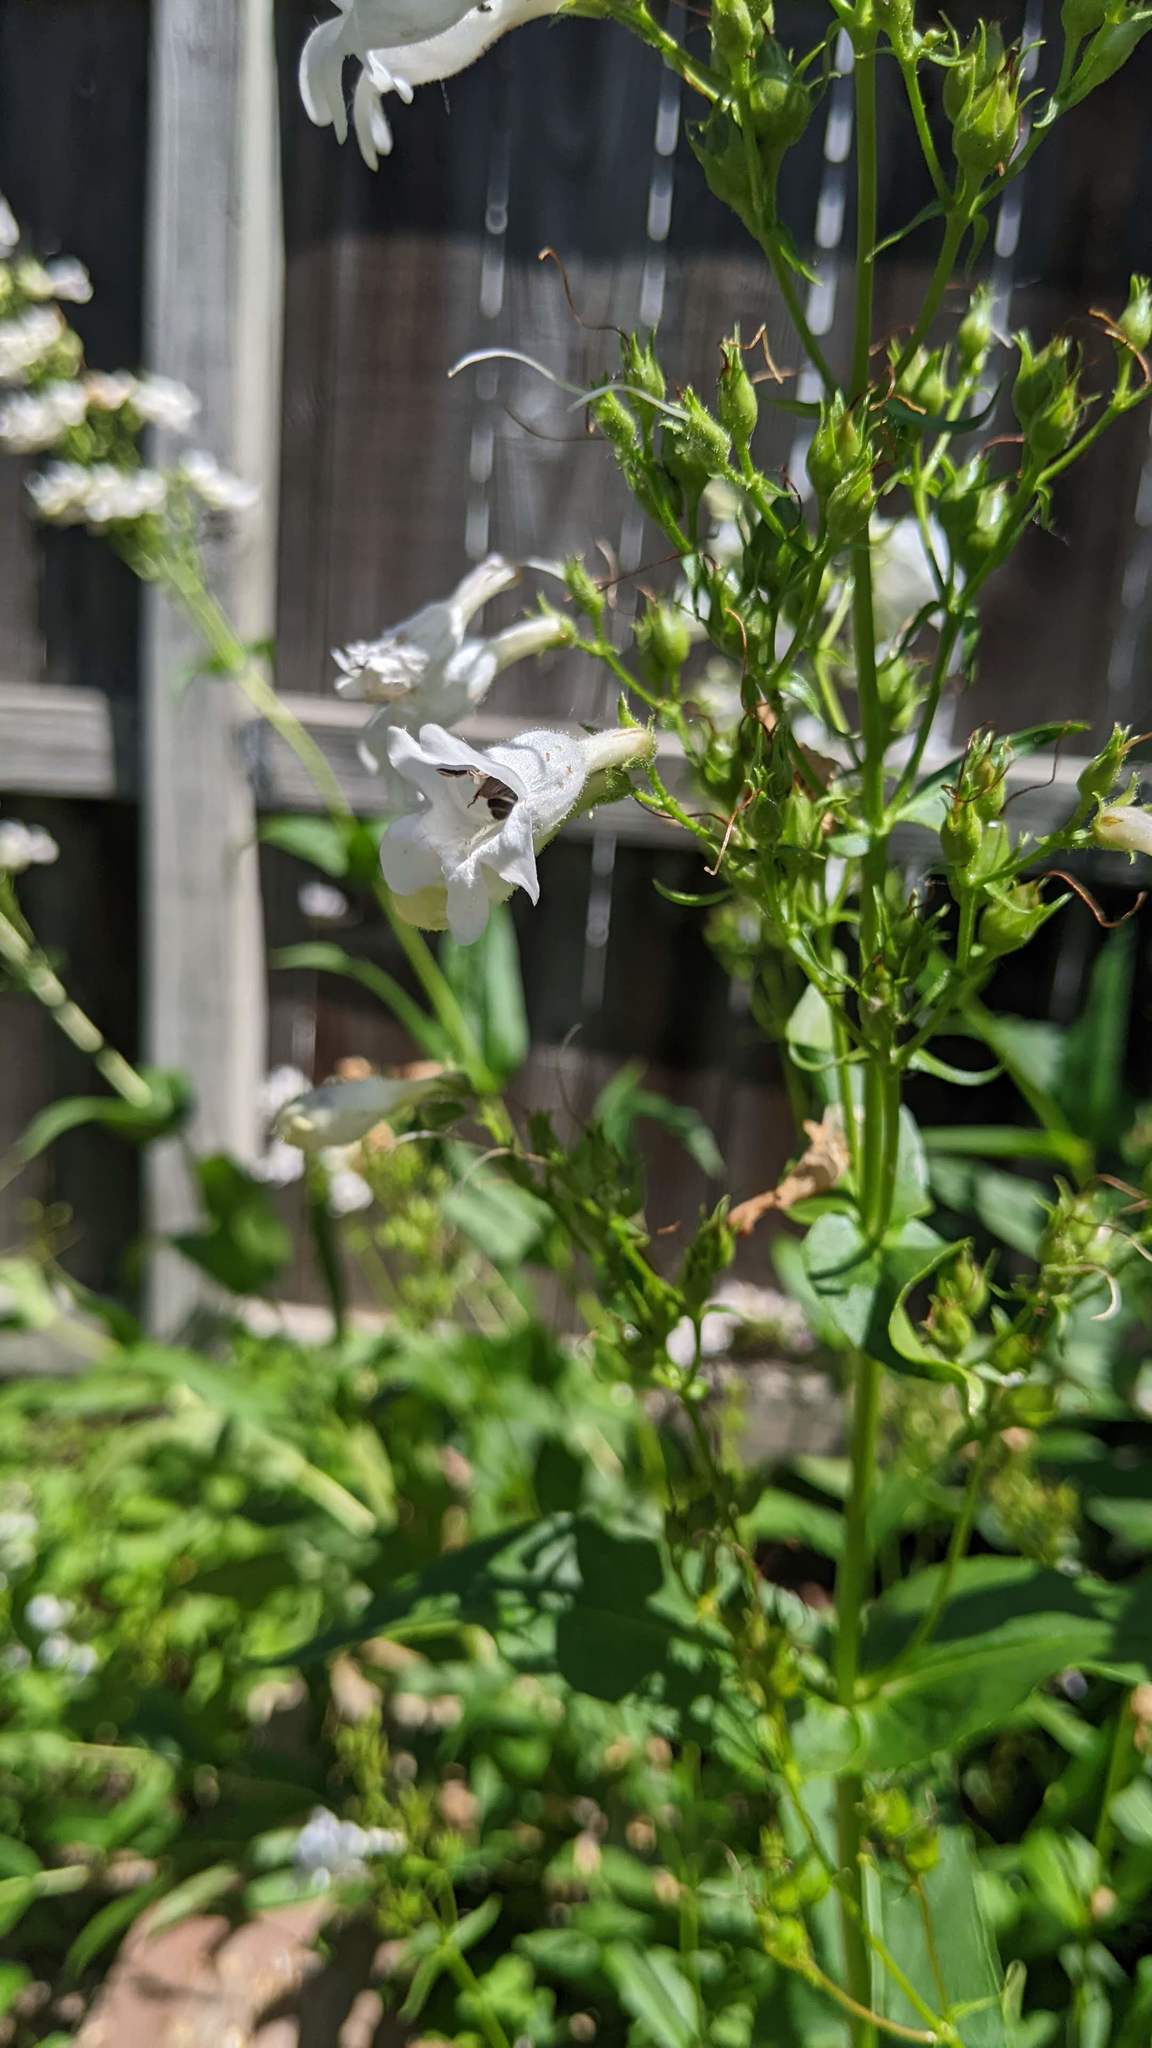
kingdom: Animalia
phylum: Arthropoda
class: Insecta
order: Hymenoptera
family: Halictidae
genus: Agapostemon
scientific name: Agapostemon virescens
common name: Bicolored striped sweat bee
